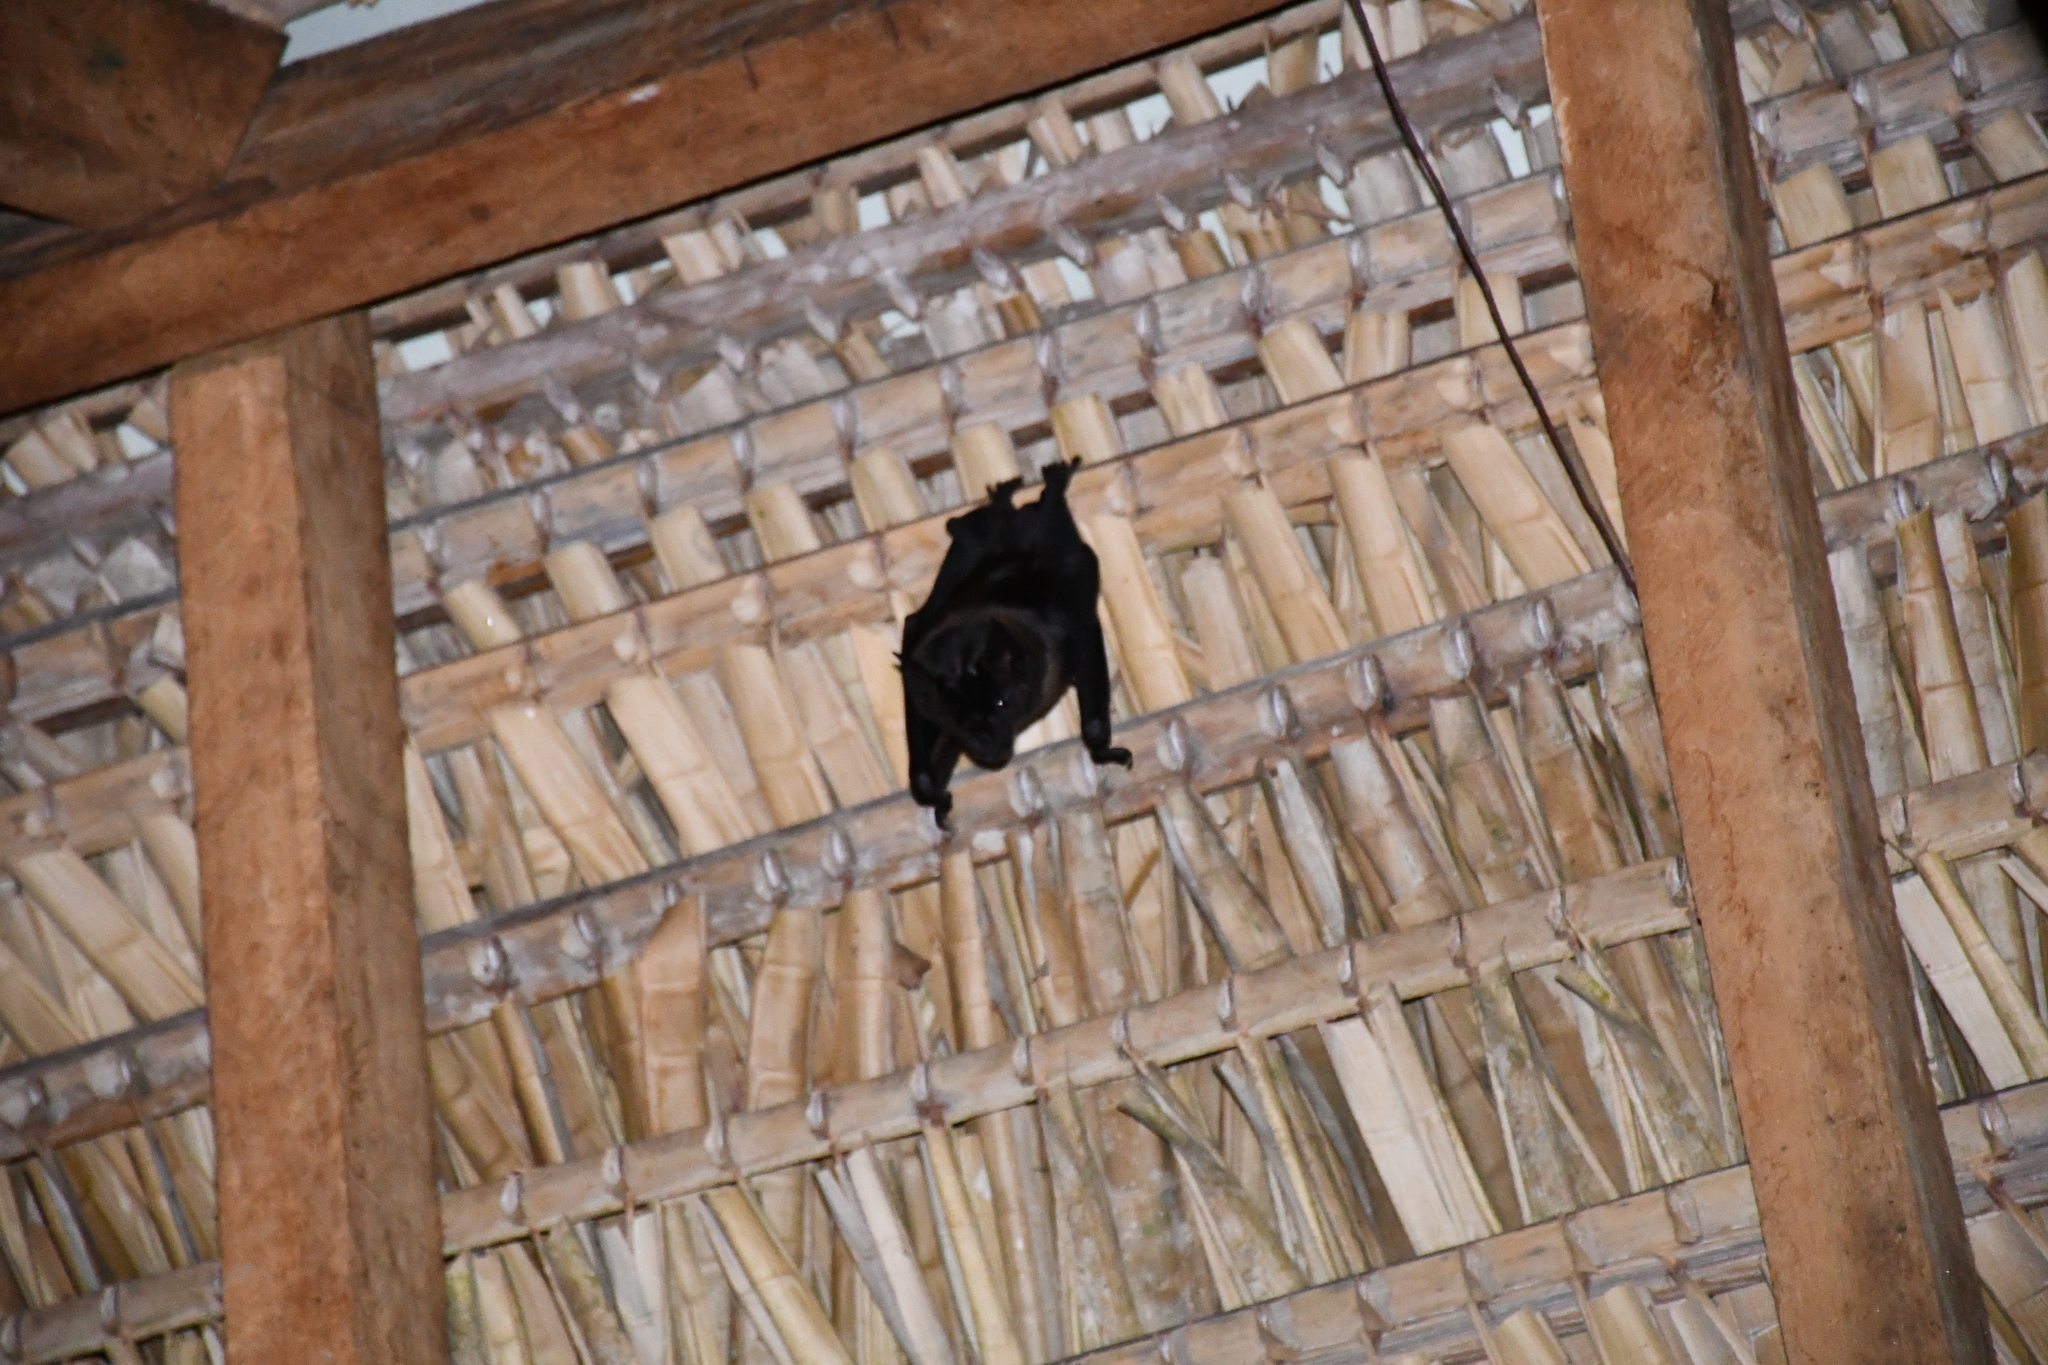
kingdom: Animalia
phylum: Chordata
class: Mammalia
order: Chiroptera
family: Phyllostomidae
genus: Phyllostomus
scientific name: Phyllostomus hastatus
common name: Greater spear-nosed bat
